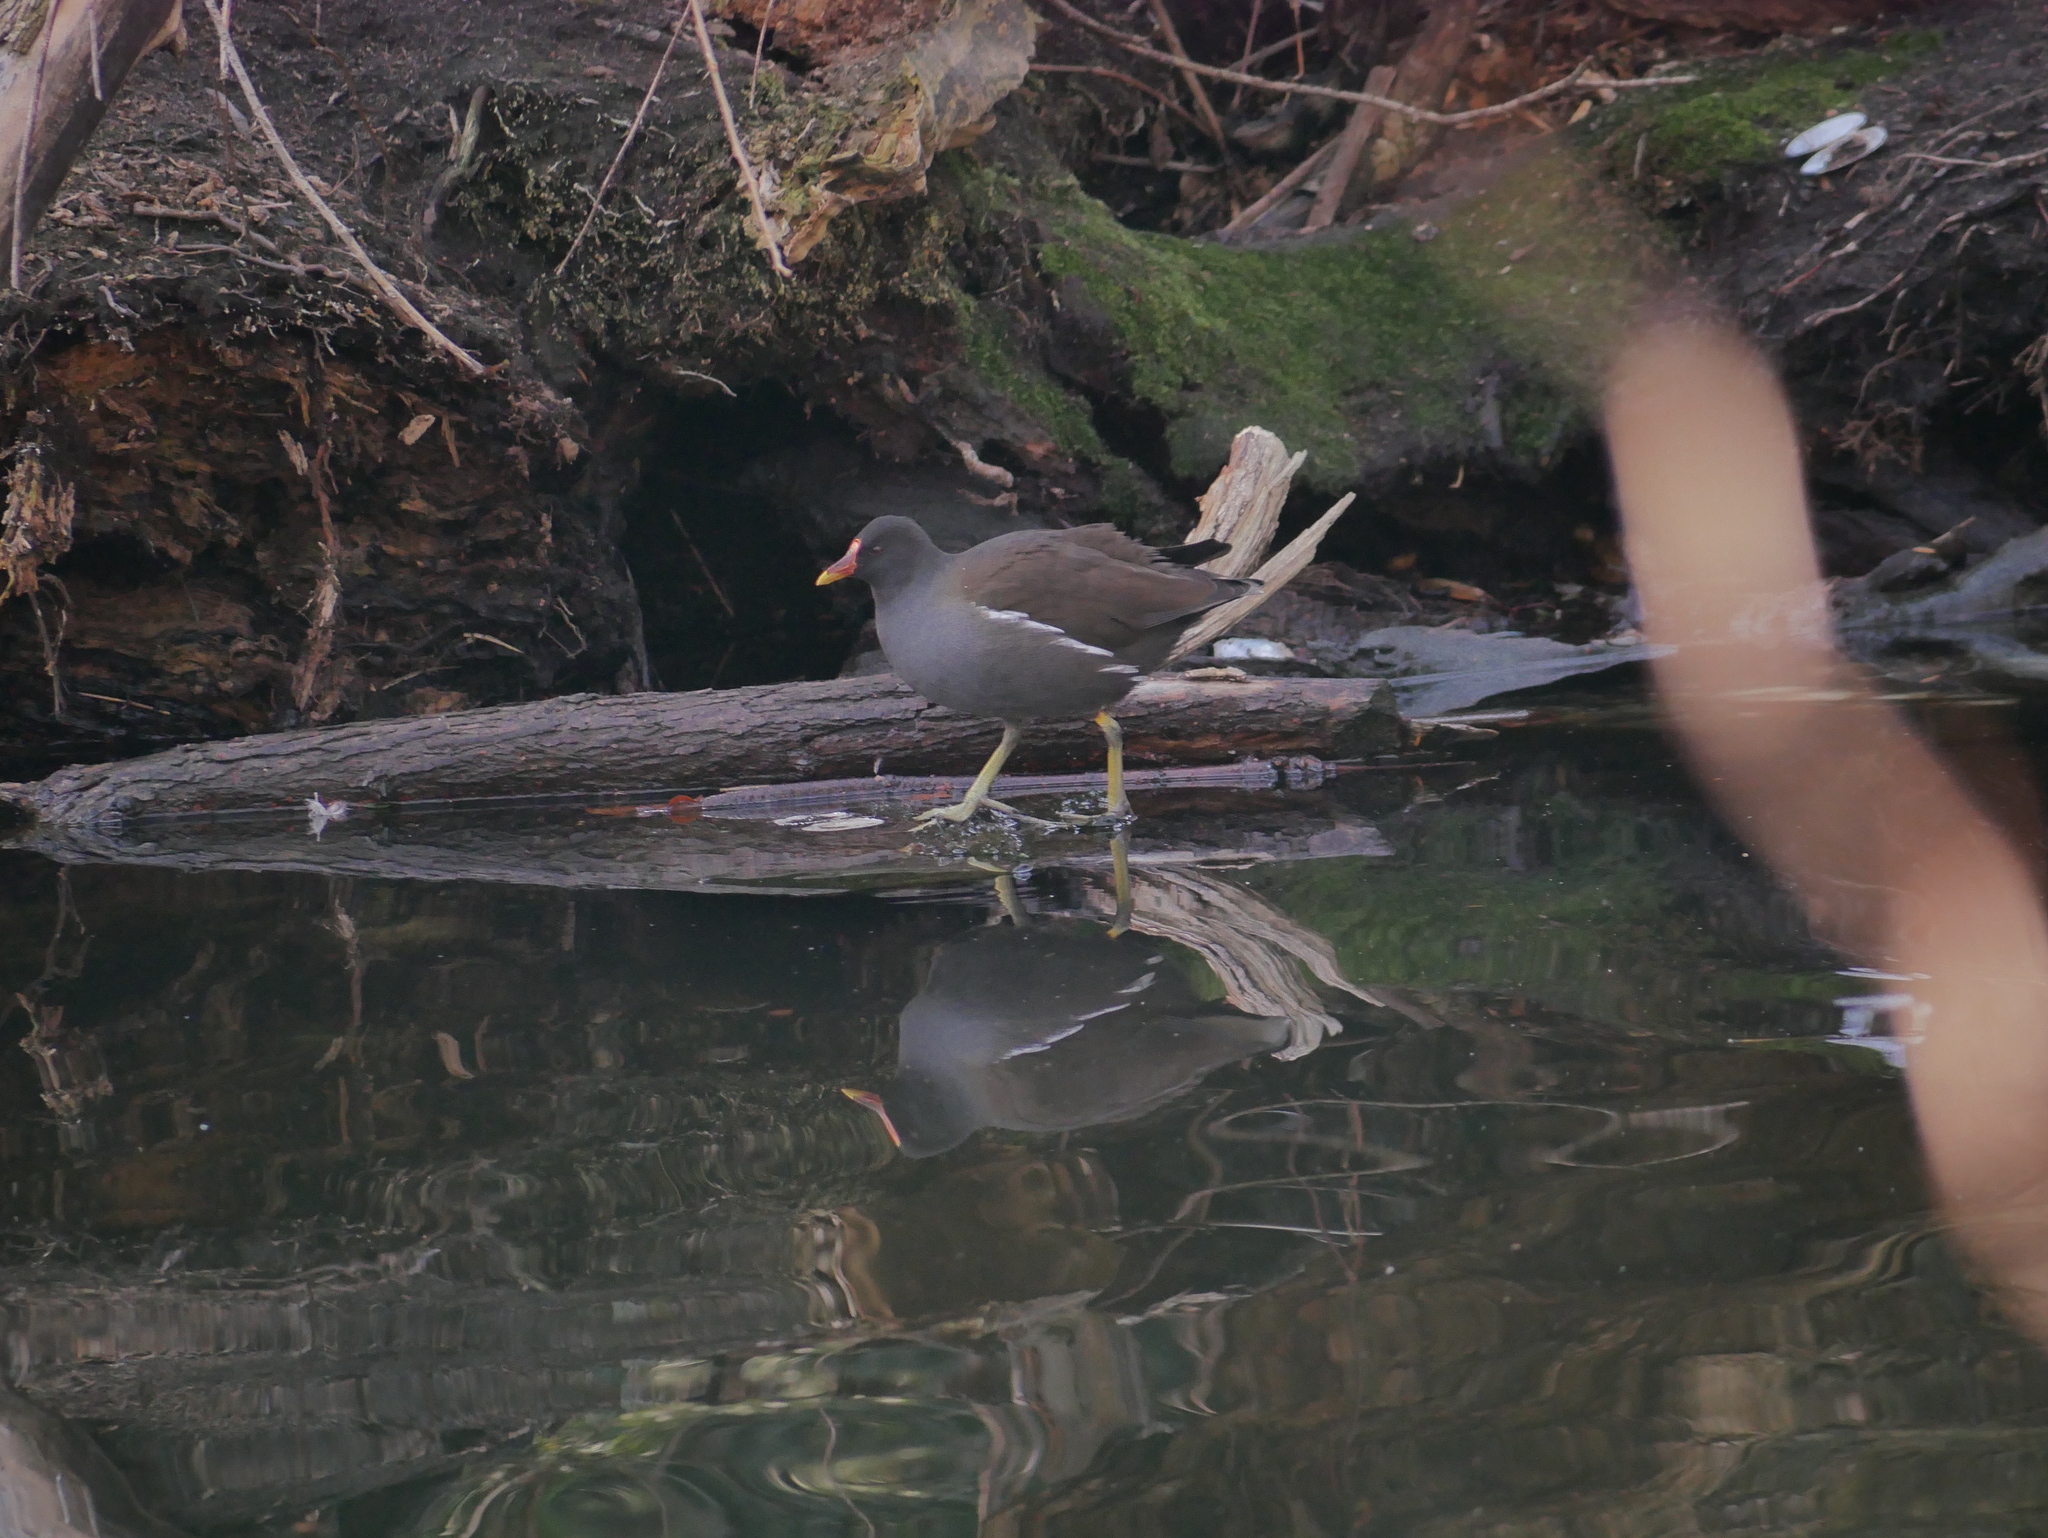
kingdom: Animalia
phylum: Chordata
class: Aves
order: Gruiformes
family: Rallidae
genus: Gallinula
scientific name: Gallinula chloropus
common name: Common moorhen
